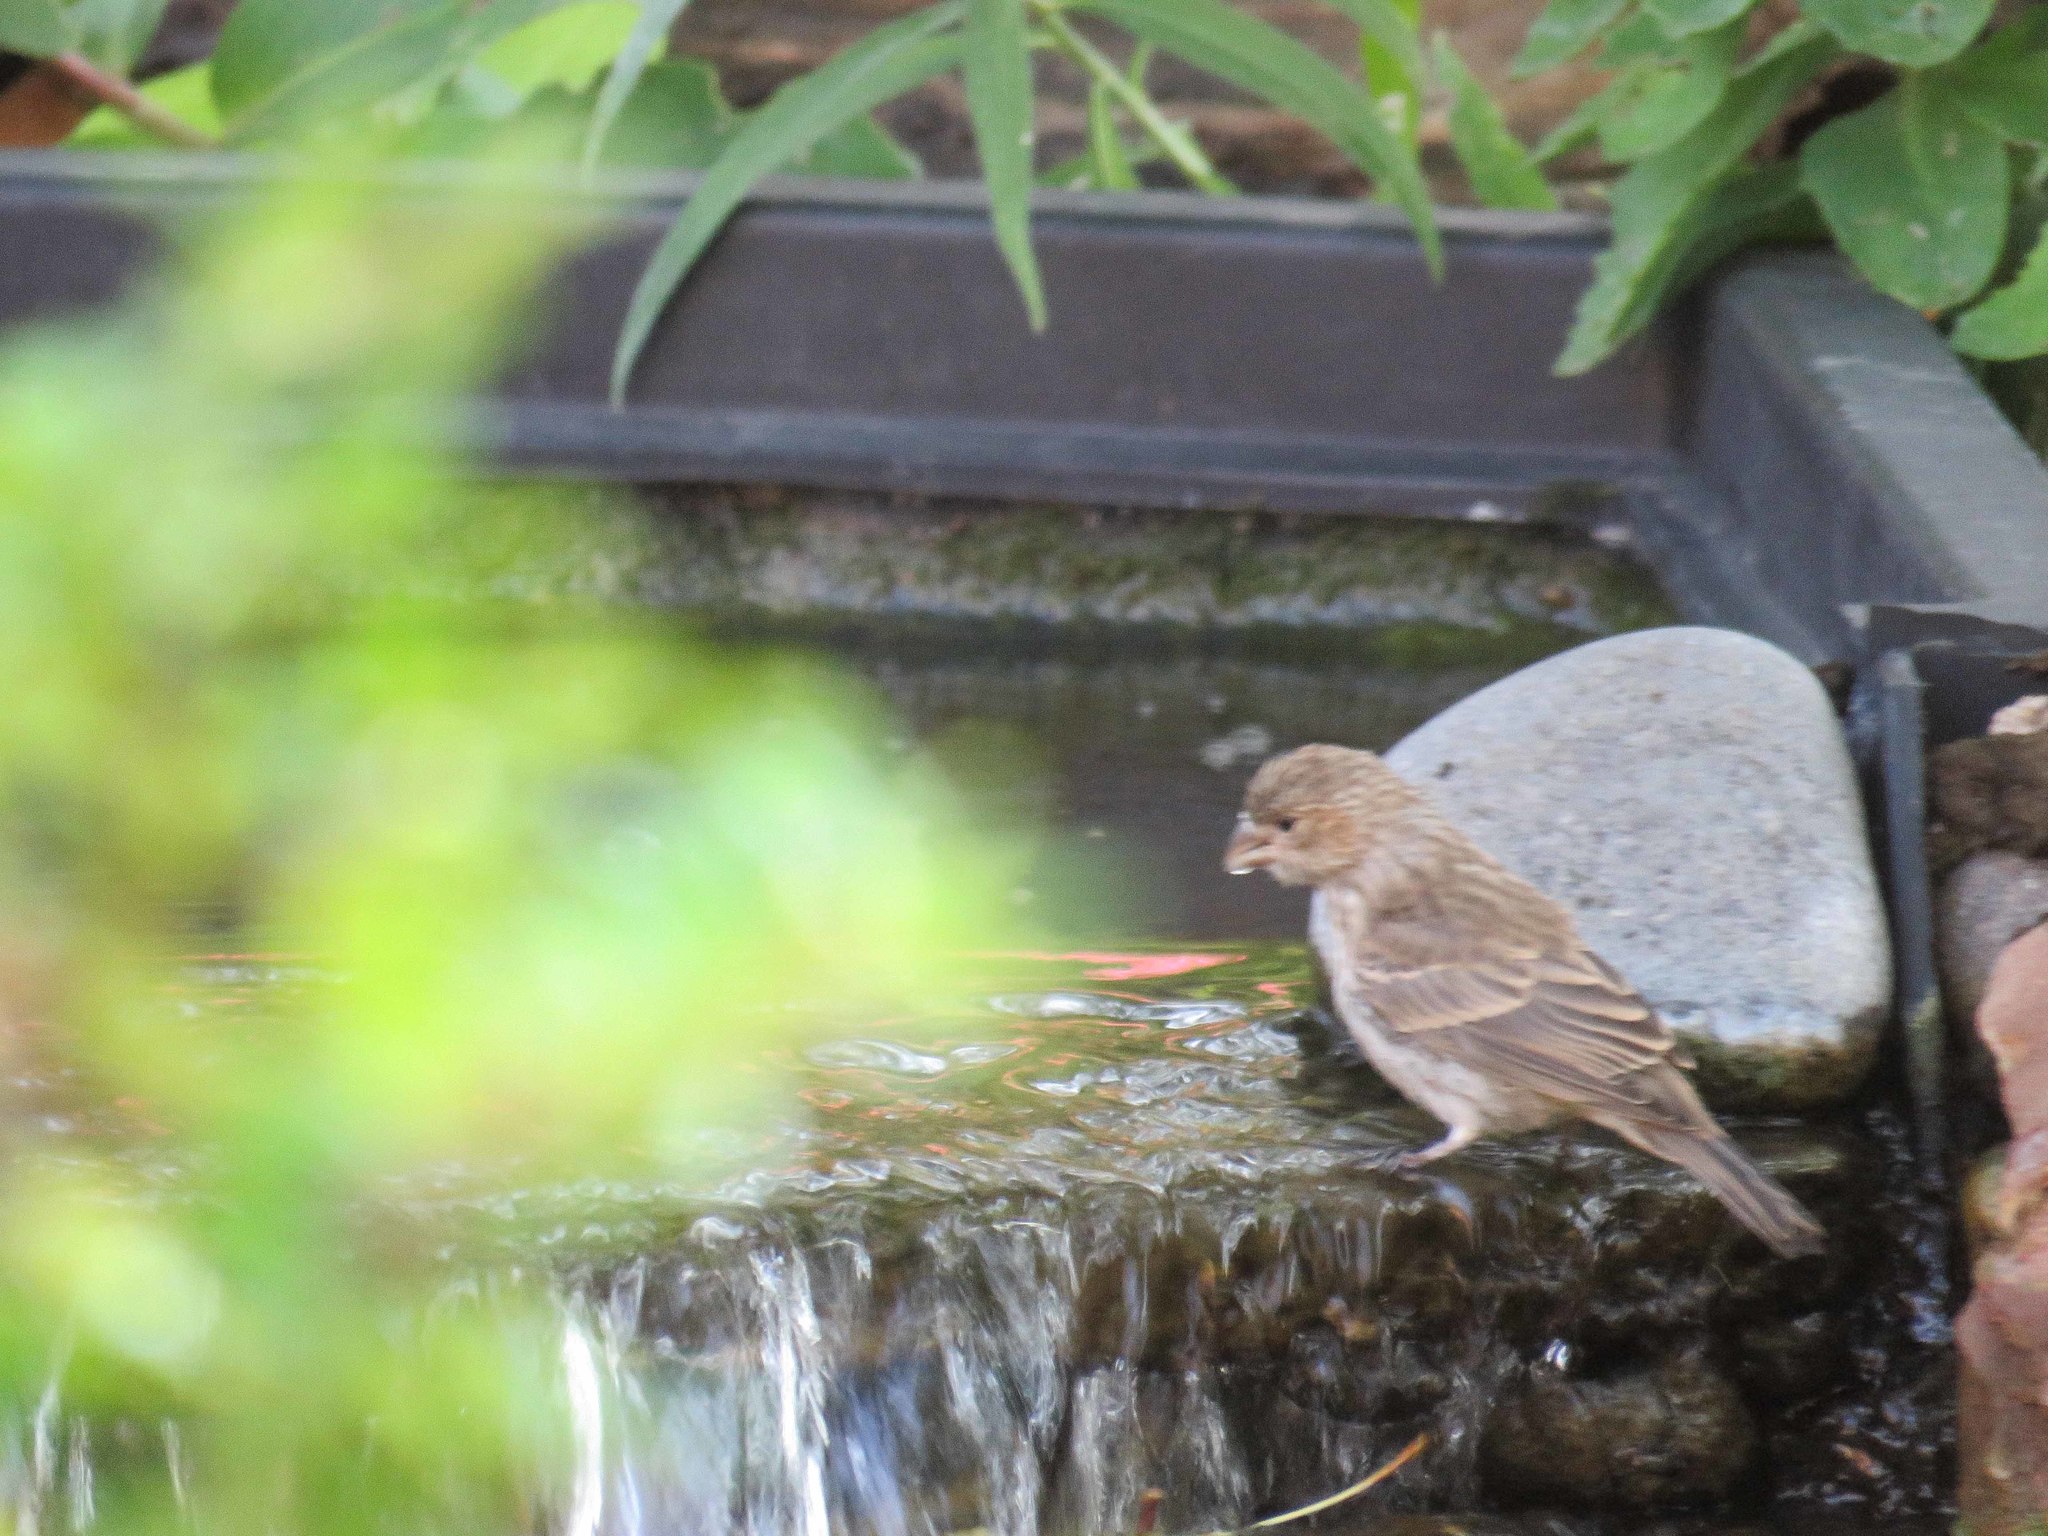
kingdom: Animalia
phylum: Chordata
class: Aves
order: Passeriformes
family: Fringillidae
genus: Haemorhous
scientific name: Haemorhous mexicanus
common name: House finch
